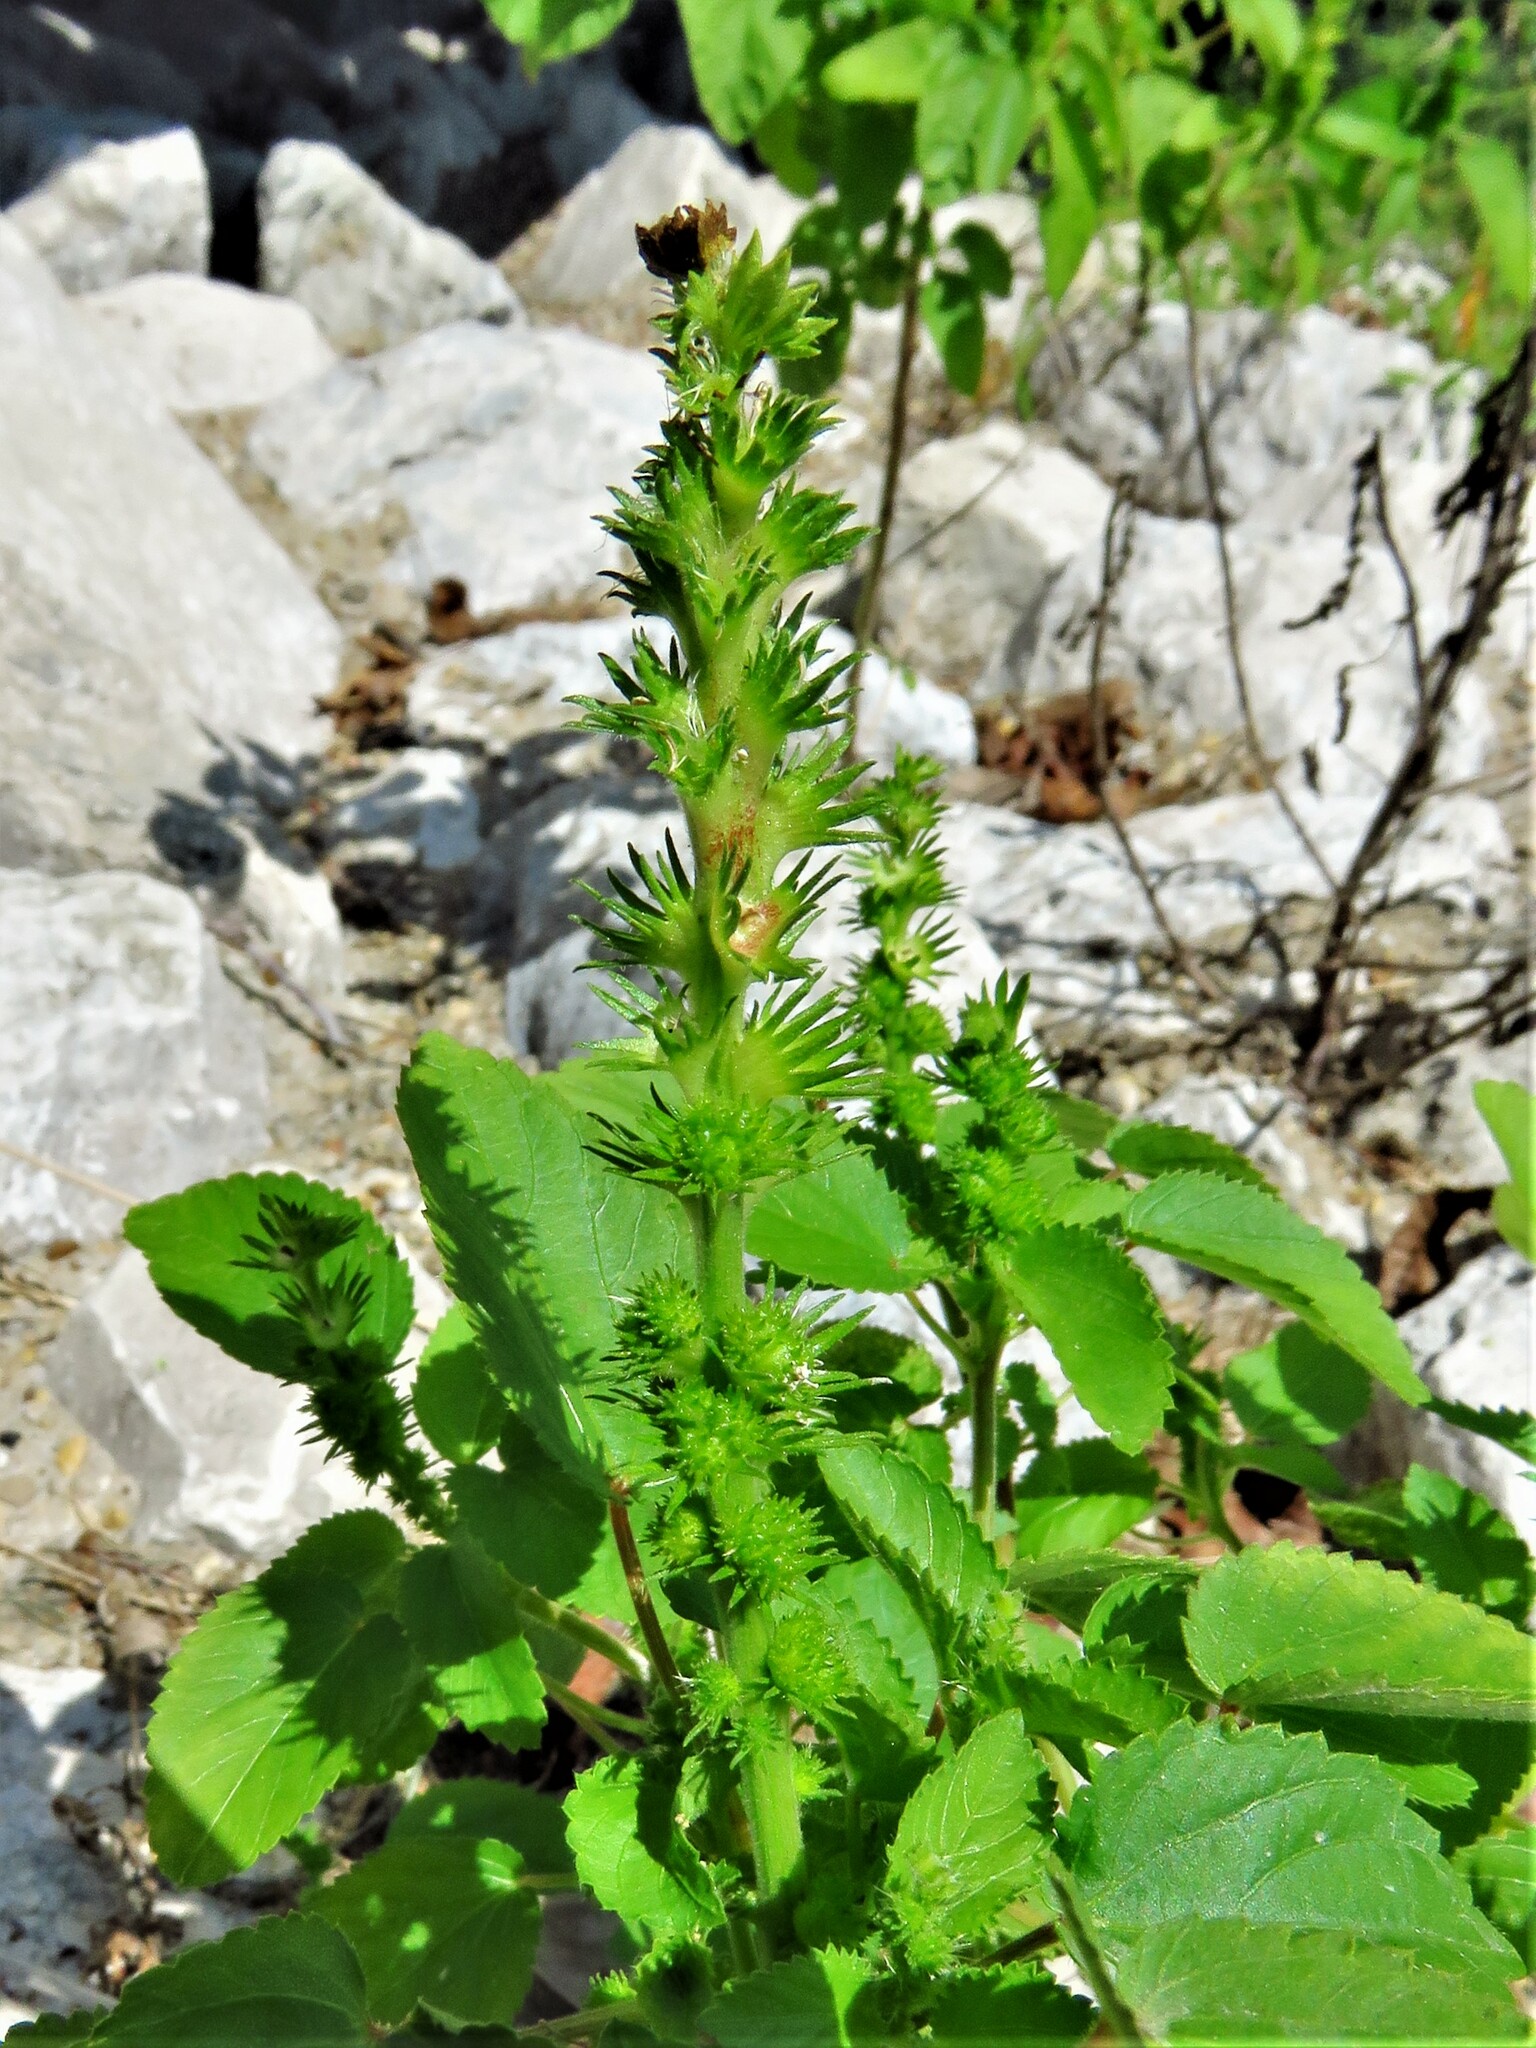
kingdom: Plantae
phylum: Tracheophyta
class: Magnoliopsida
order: Malpighiales
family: Euphorbiaceae
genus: Acalypha
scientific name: Acalypha ostryifolia
